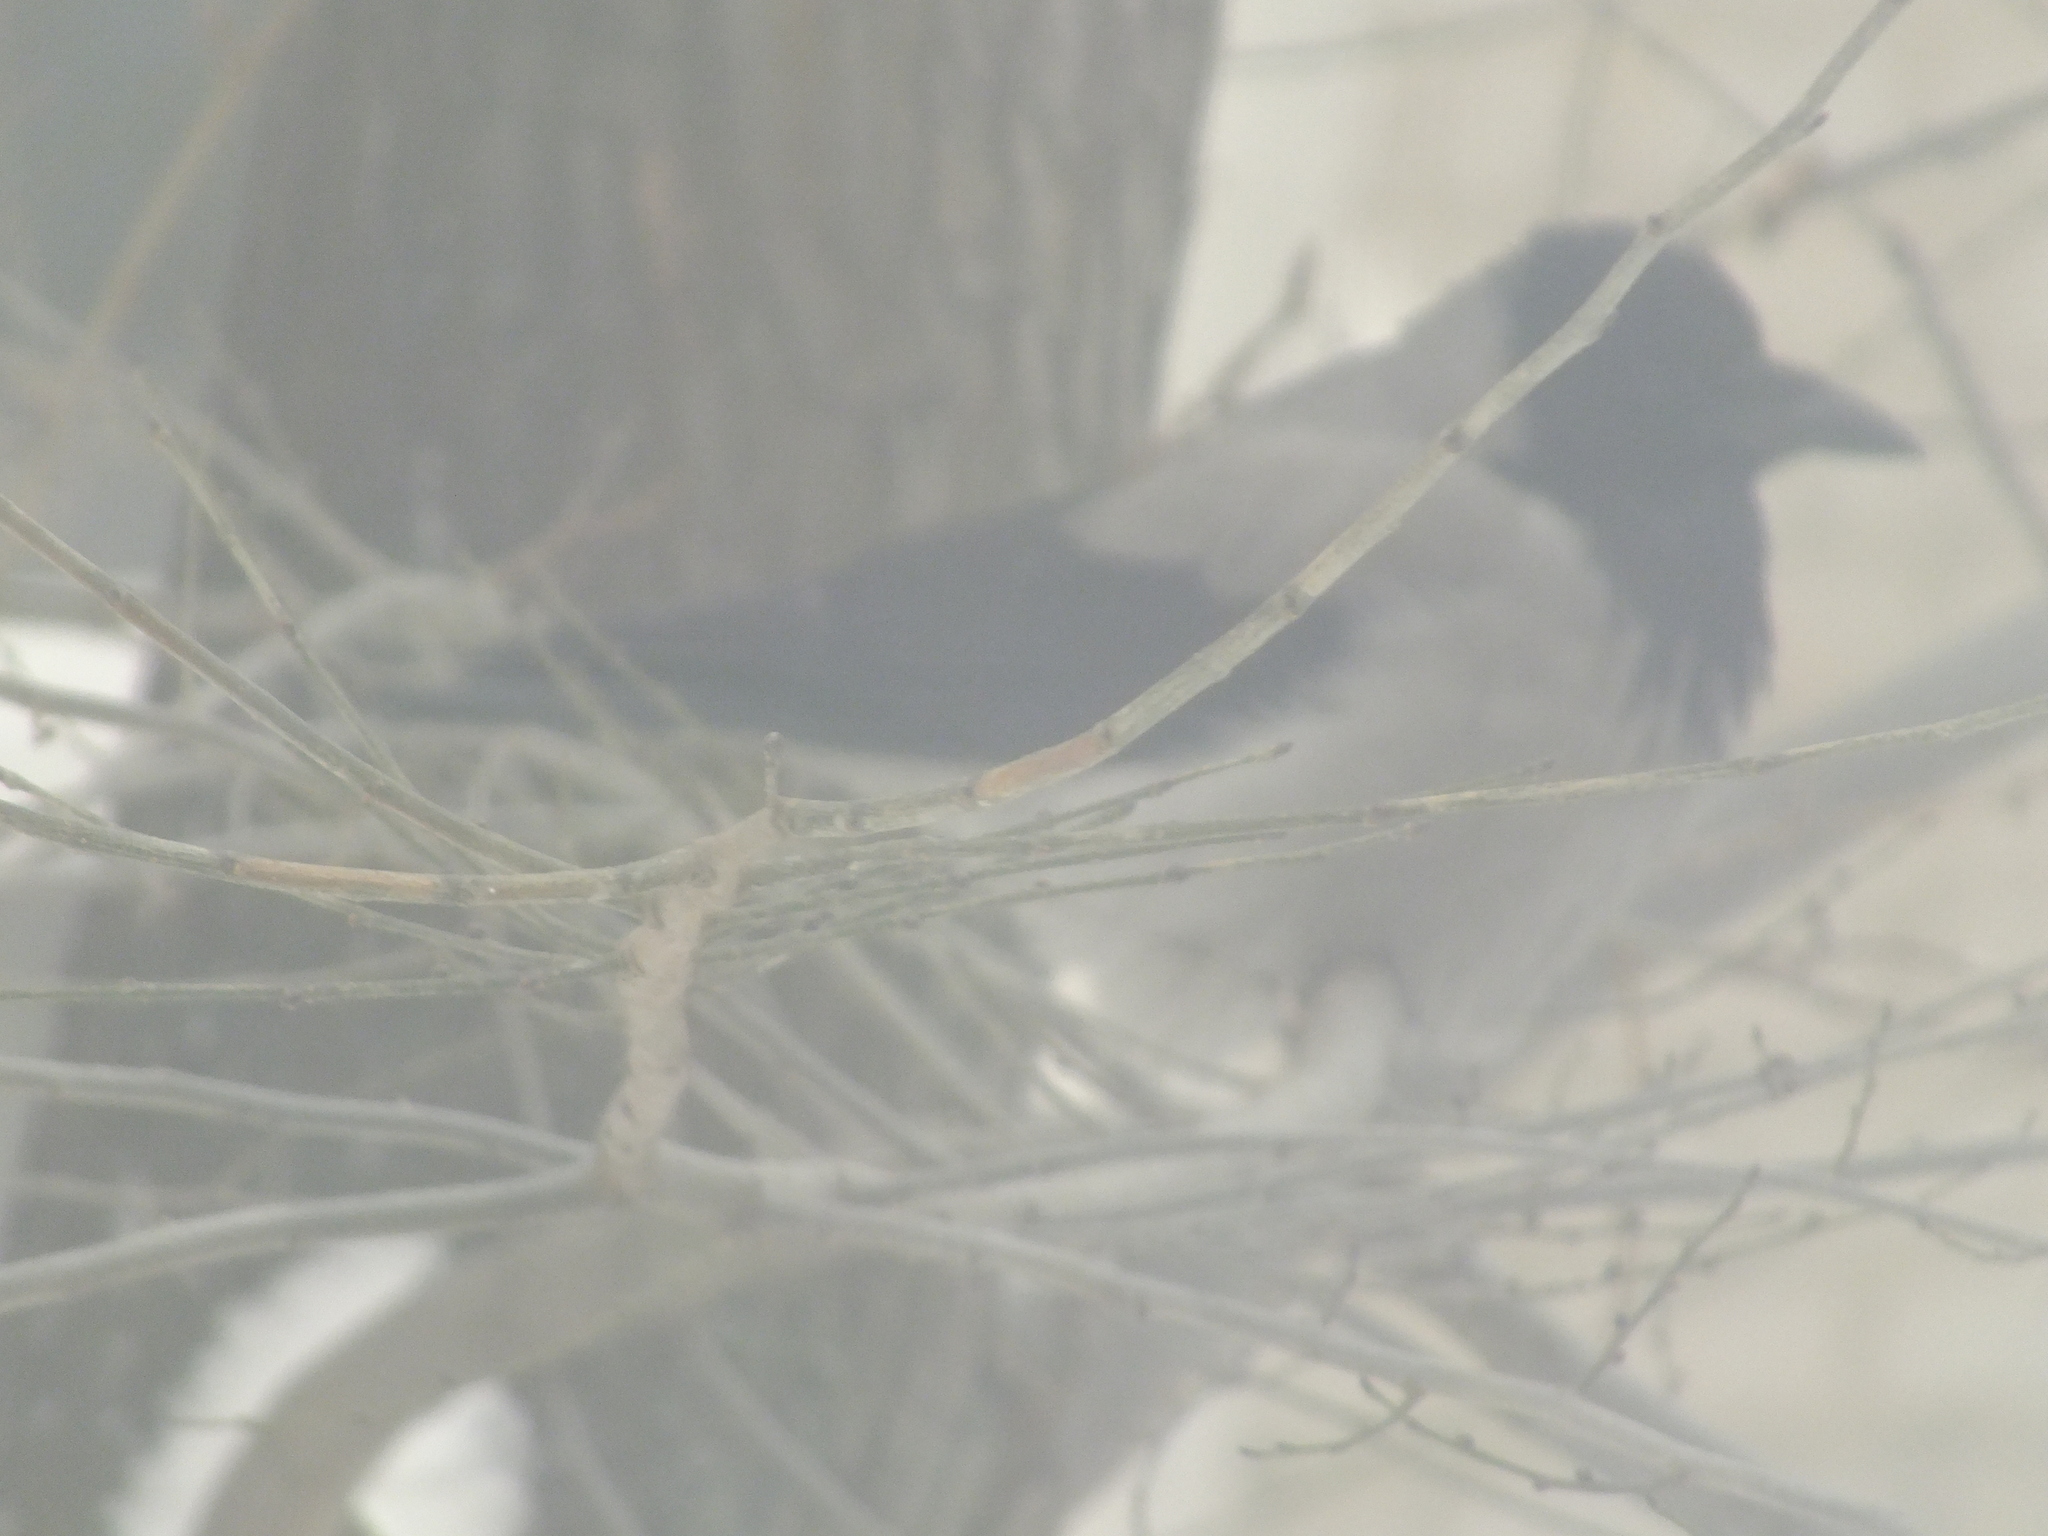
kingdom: Animalia
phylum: Chordata
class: Aves
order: Passeriformes
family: Corvidae
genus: Corvus
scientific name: Corvus cornix
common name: Hooded crow
